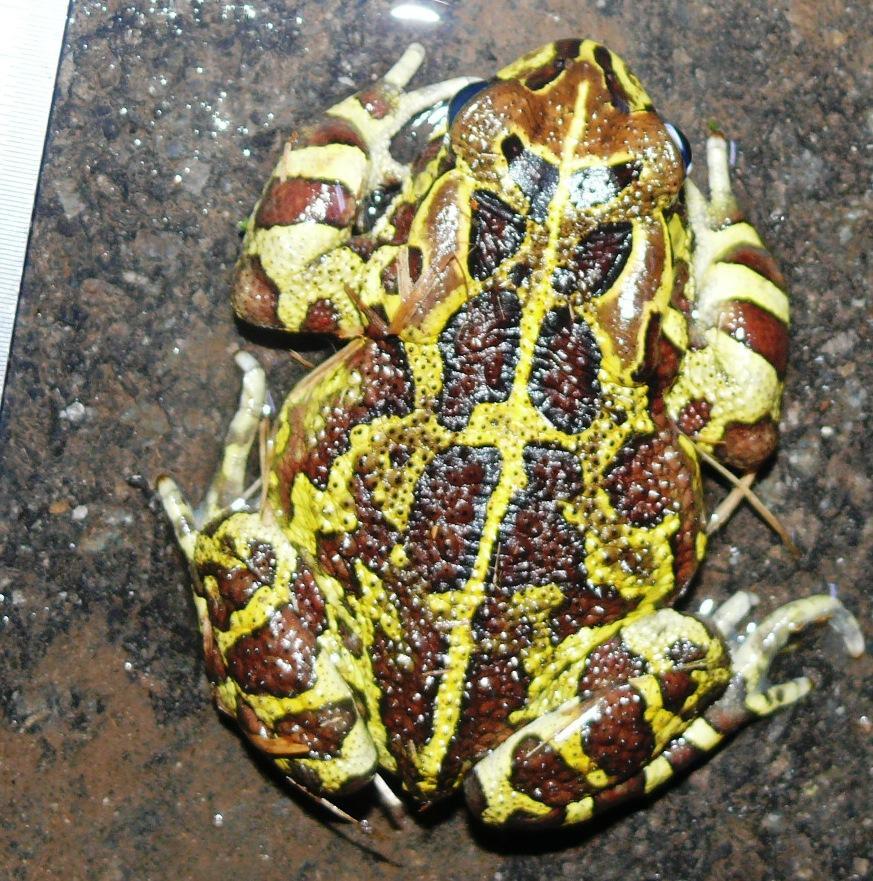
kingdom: Animalia
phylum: Chordata
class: Amphibia
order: Anura
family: Bufonidae
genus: Sclerophrys
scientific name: Sclerophrys pantherina
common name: Panther toad
